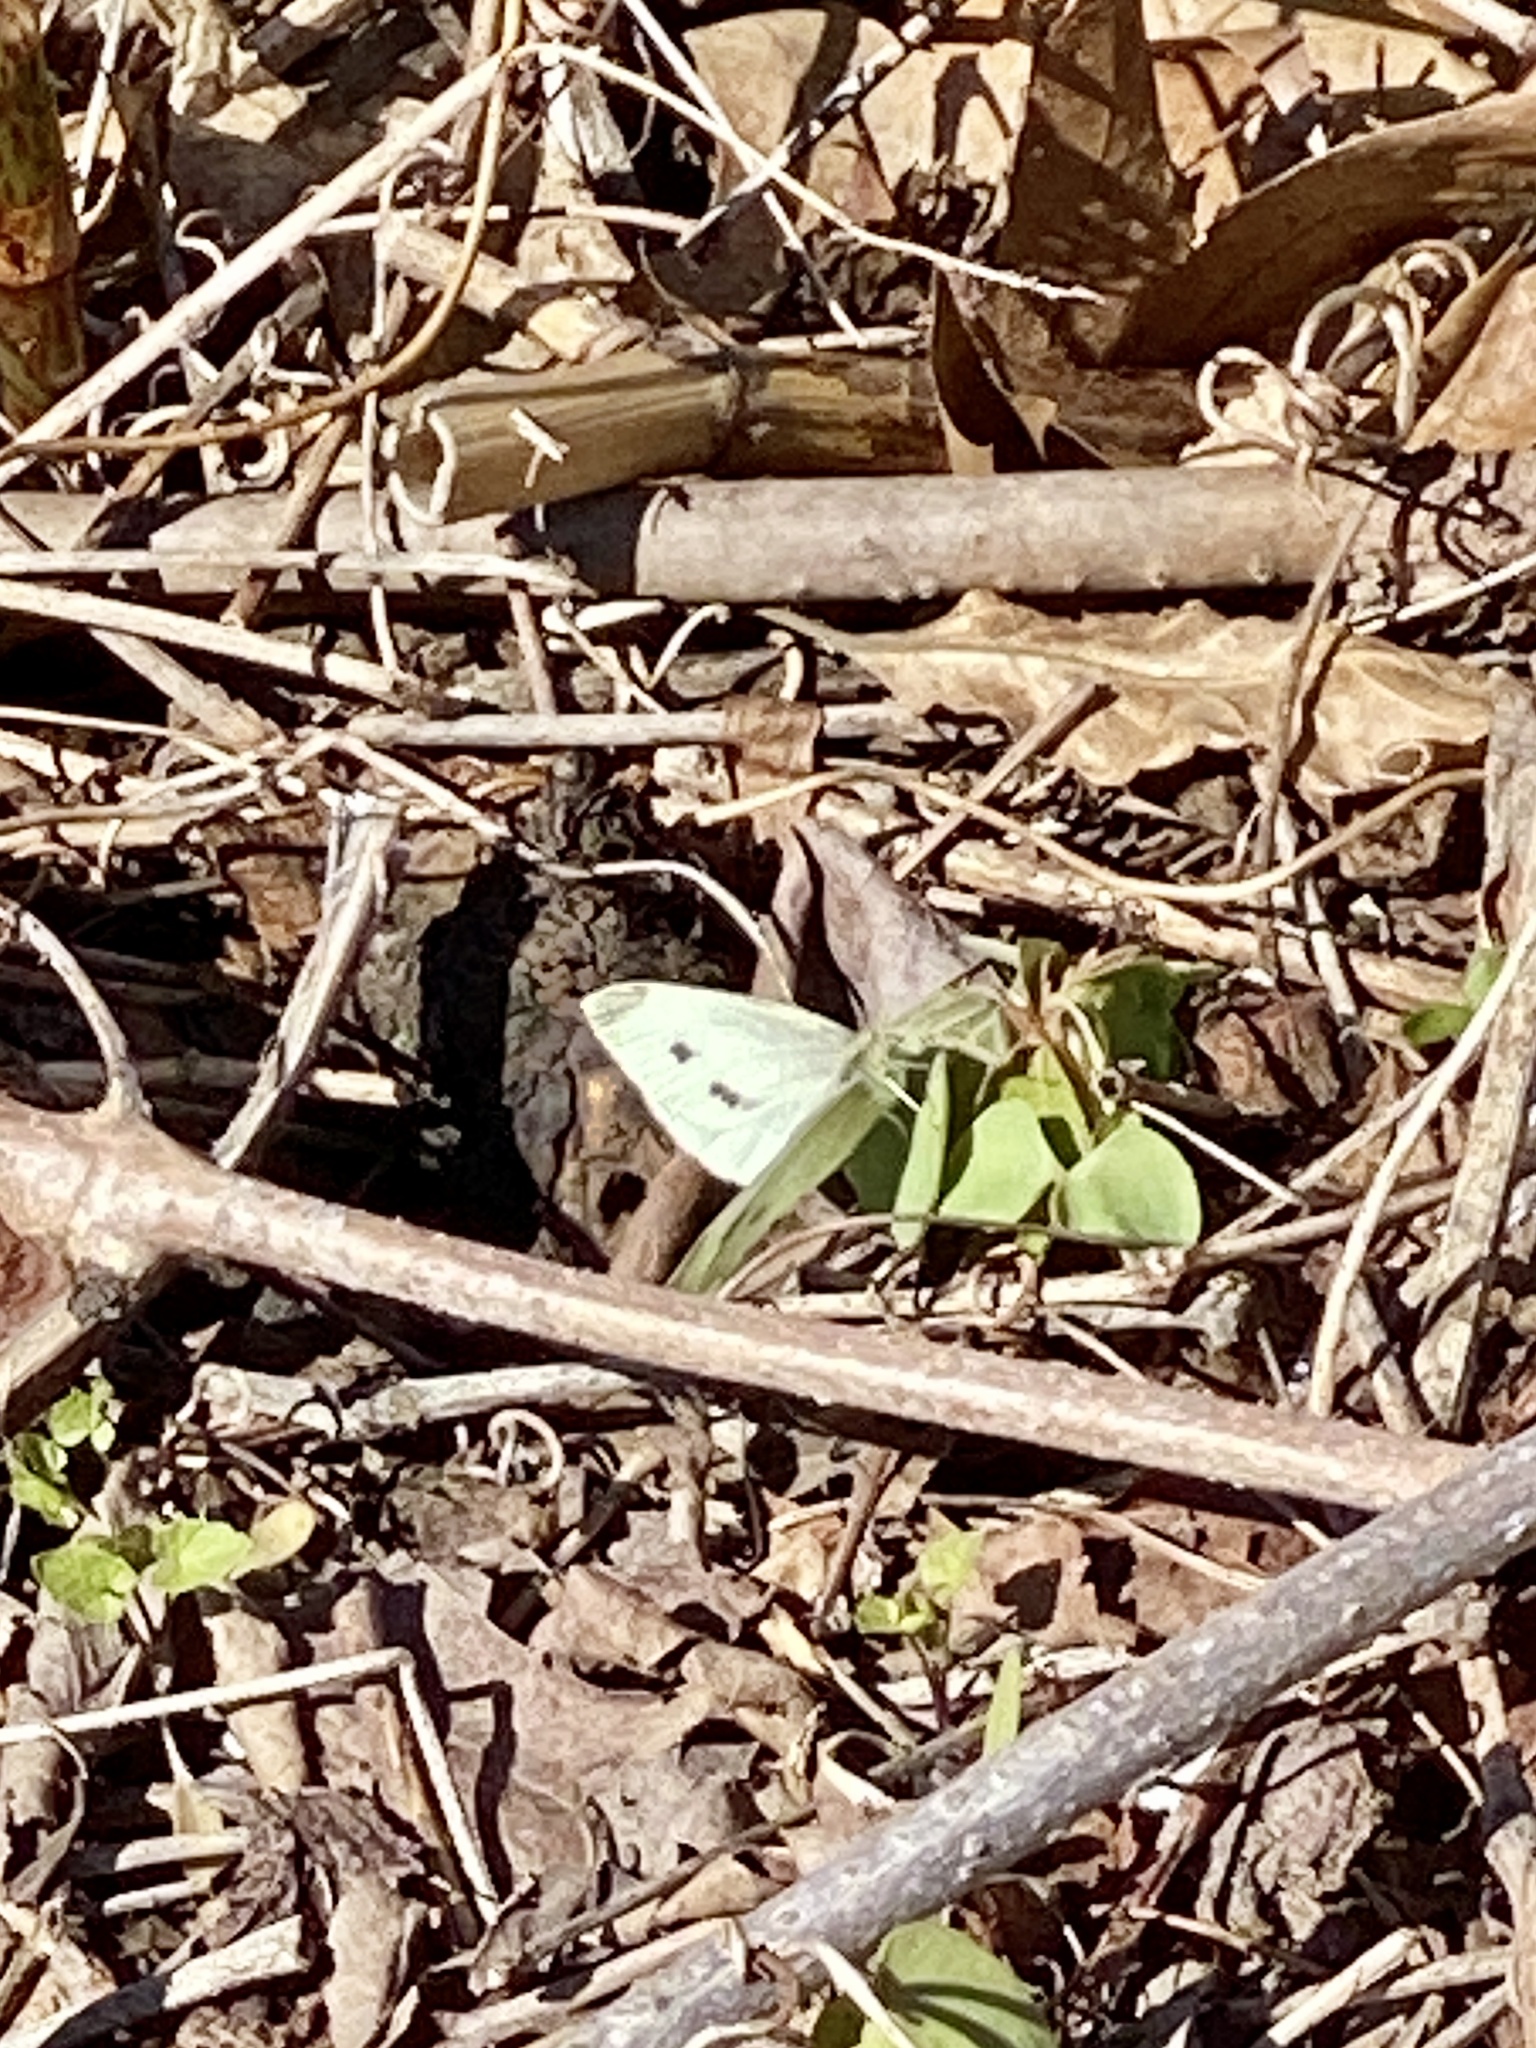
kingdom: Animalia
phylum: Arthropoda
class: Insecta
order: Lepidoptera
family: Pieridae
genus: Pieris
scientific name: Pieris rapae
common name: Small white
